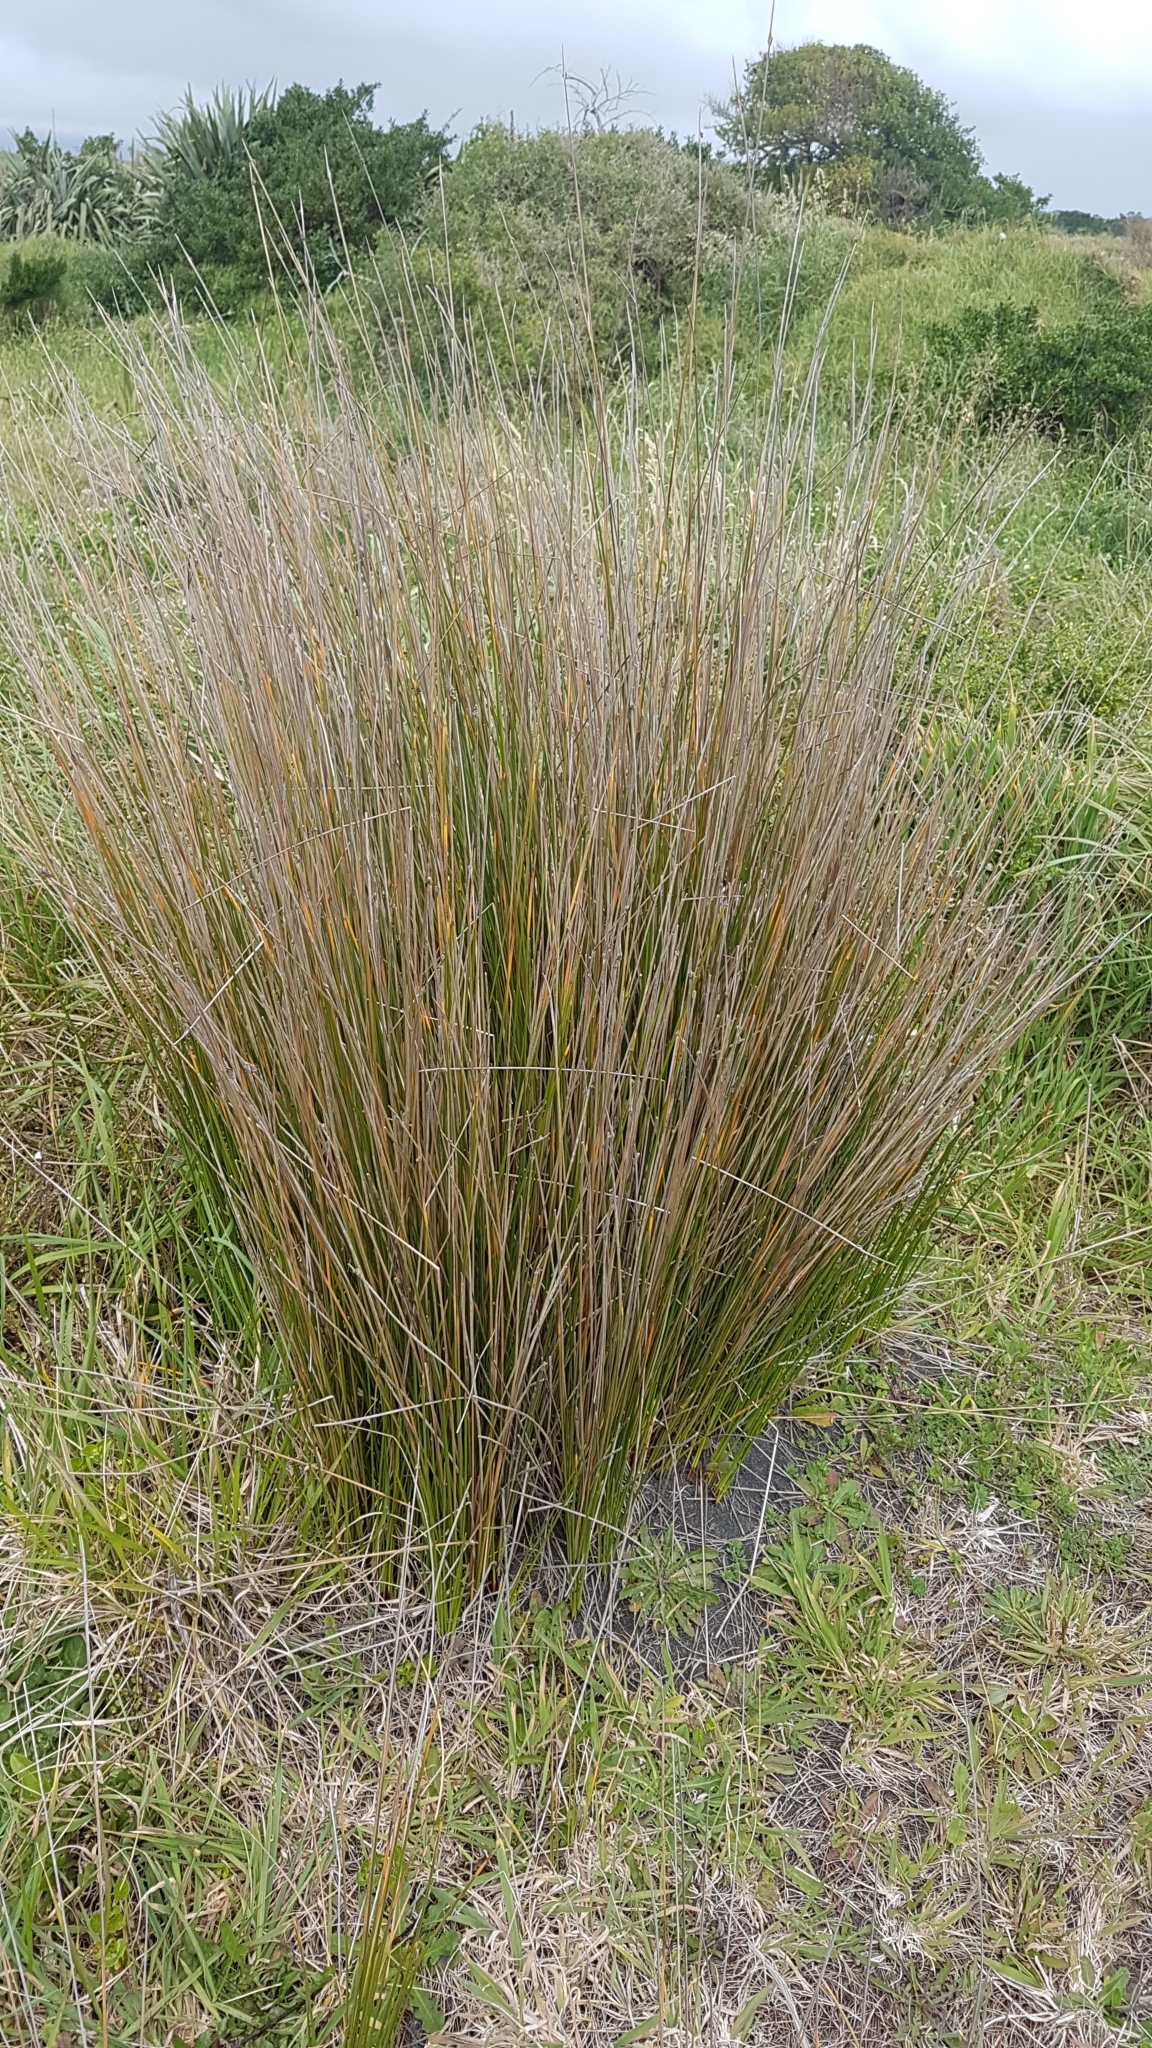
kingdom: Plantae
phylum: Tracheophyta
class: Liliopsida
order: Poales
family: Cyperaceae
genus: Ficinia
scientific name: Ficinia nodosa
